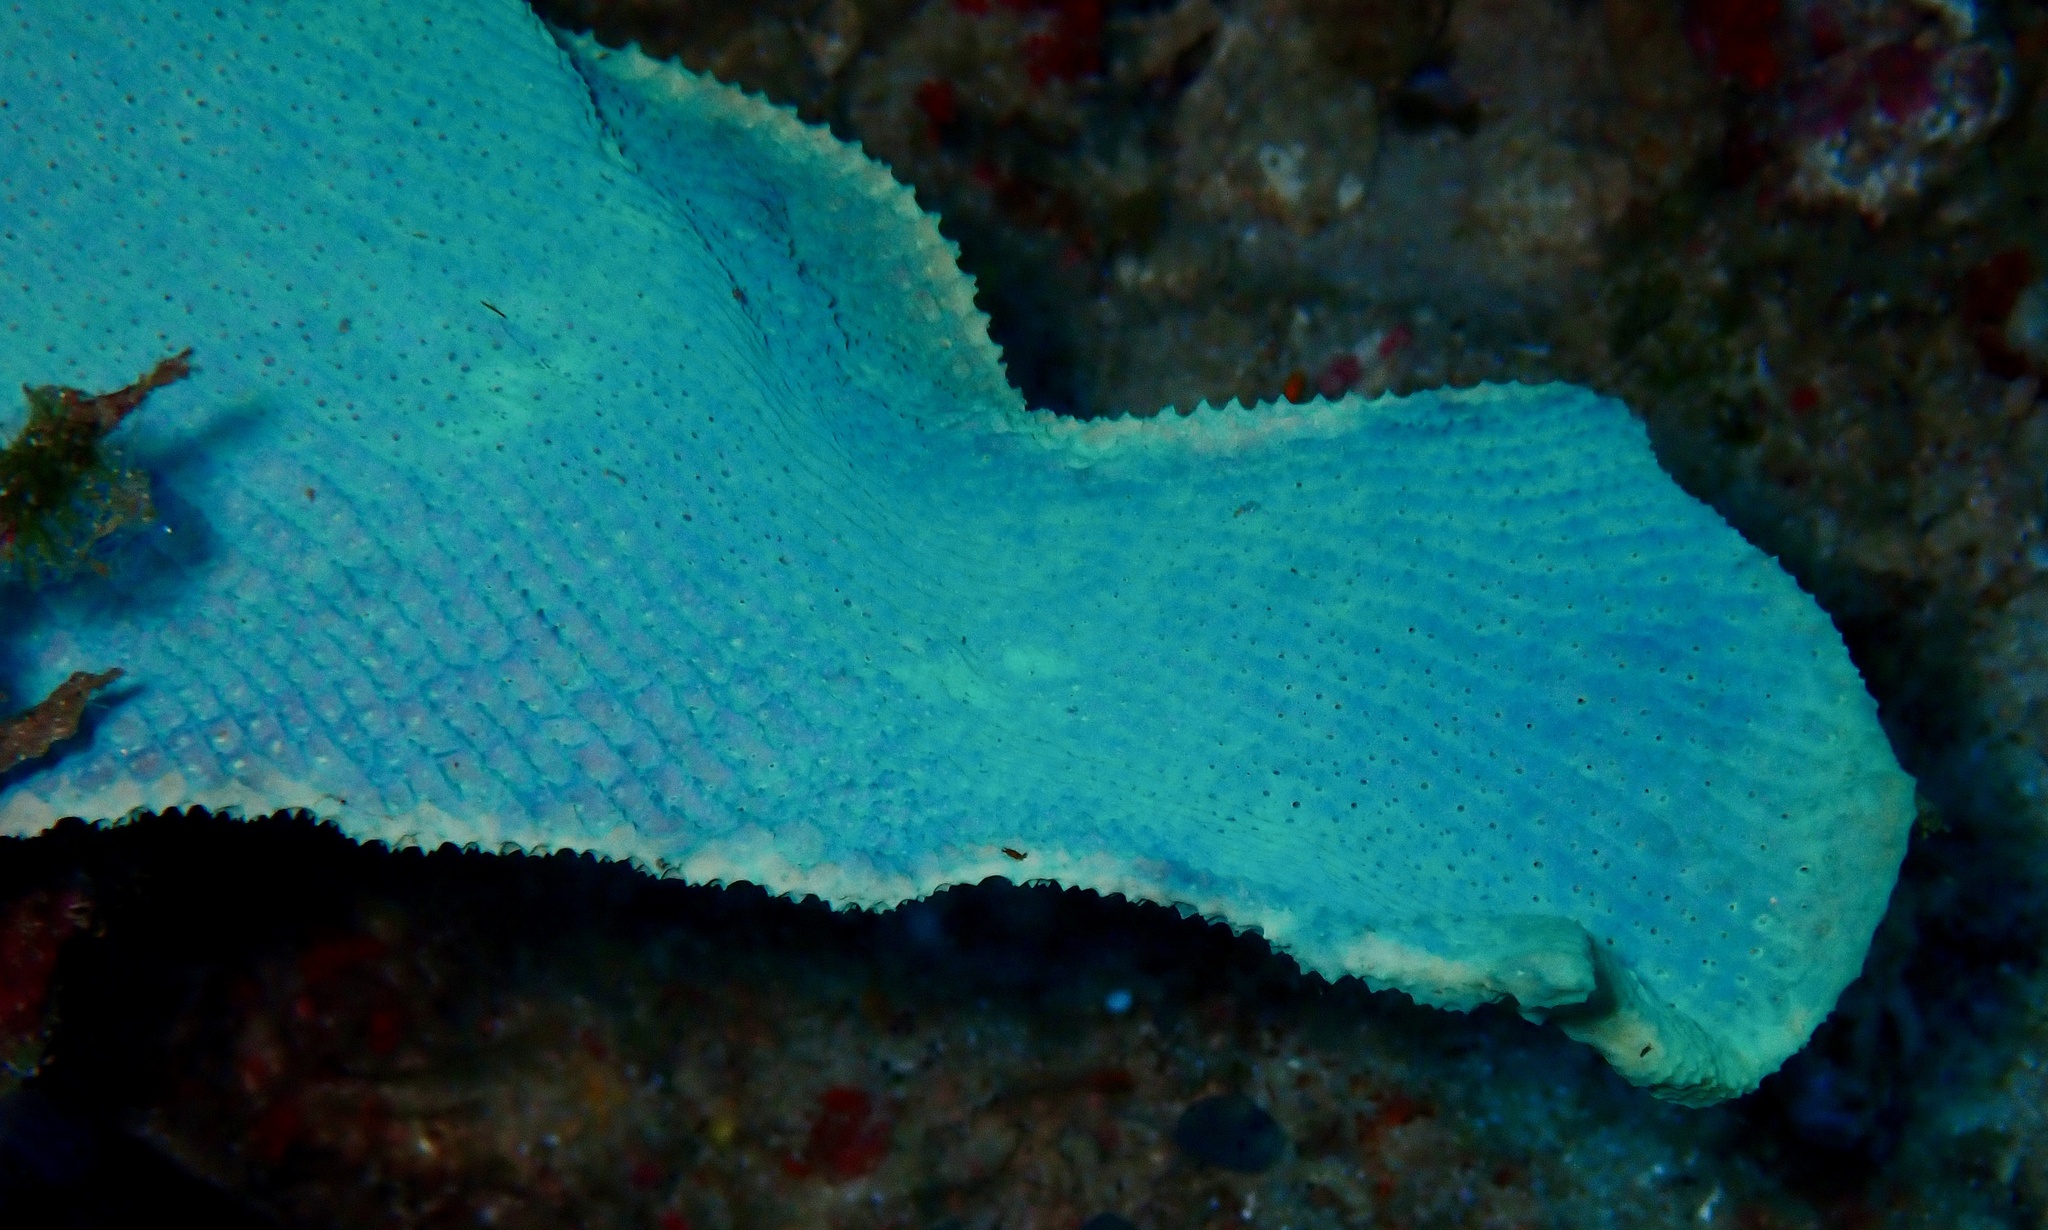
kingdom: Animalia
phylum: Porifera
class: Demospongiae
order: Verongiida
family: Ianthellidae
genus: Ianthella
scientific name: Ianthella basta
